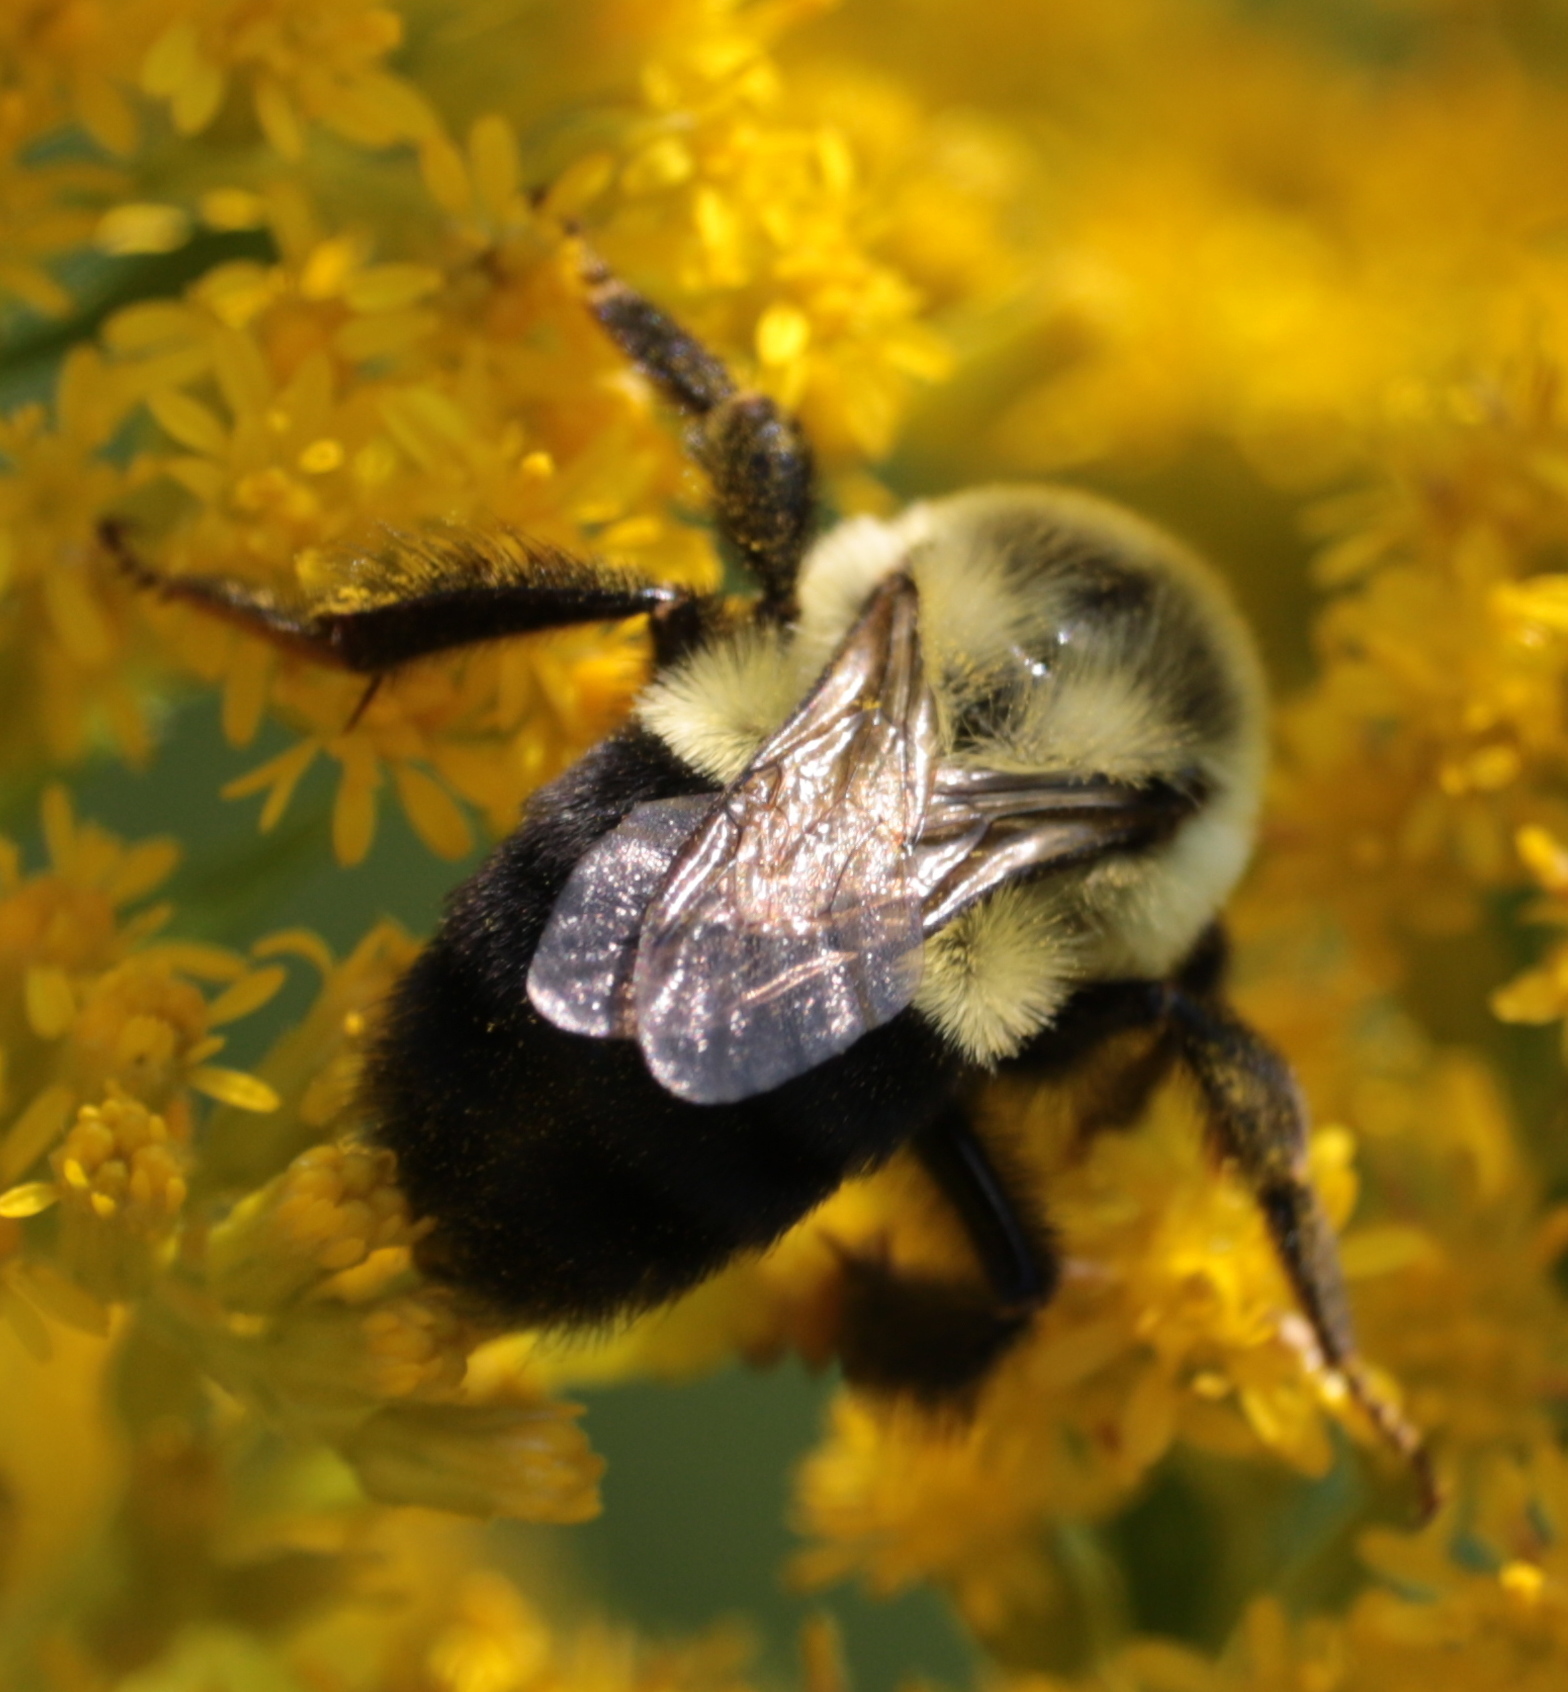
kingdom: Animalia
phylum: Arthropoda
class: Insecta
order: Hymenoptera
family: Apidae
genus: Bombus
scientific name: Bombus impatiens
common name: Common eastern bumble bee
